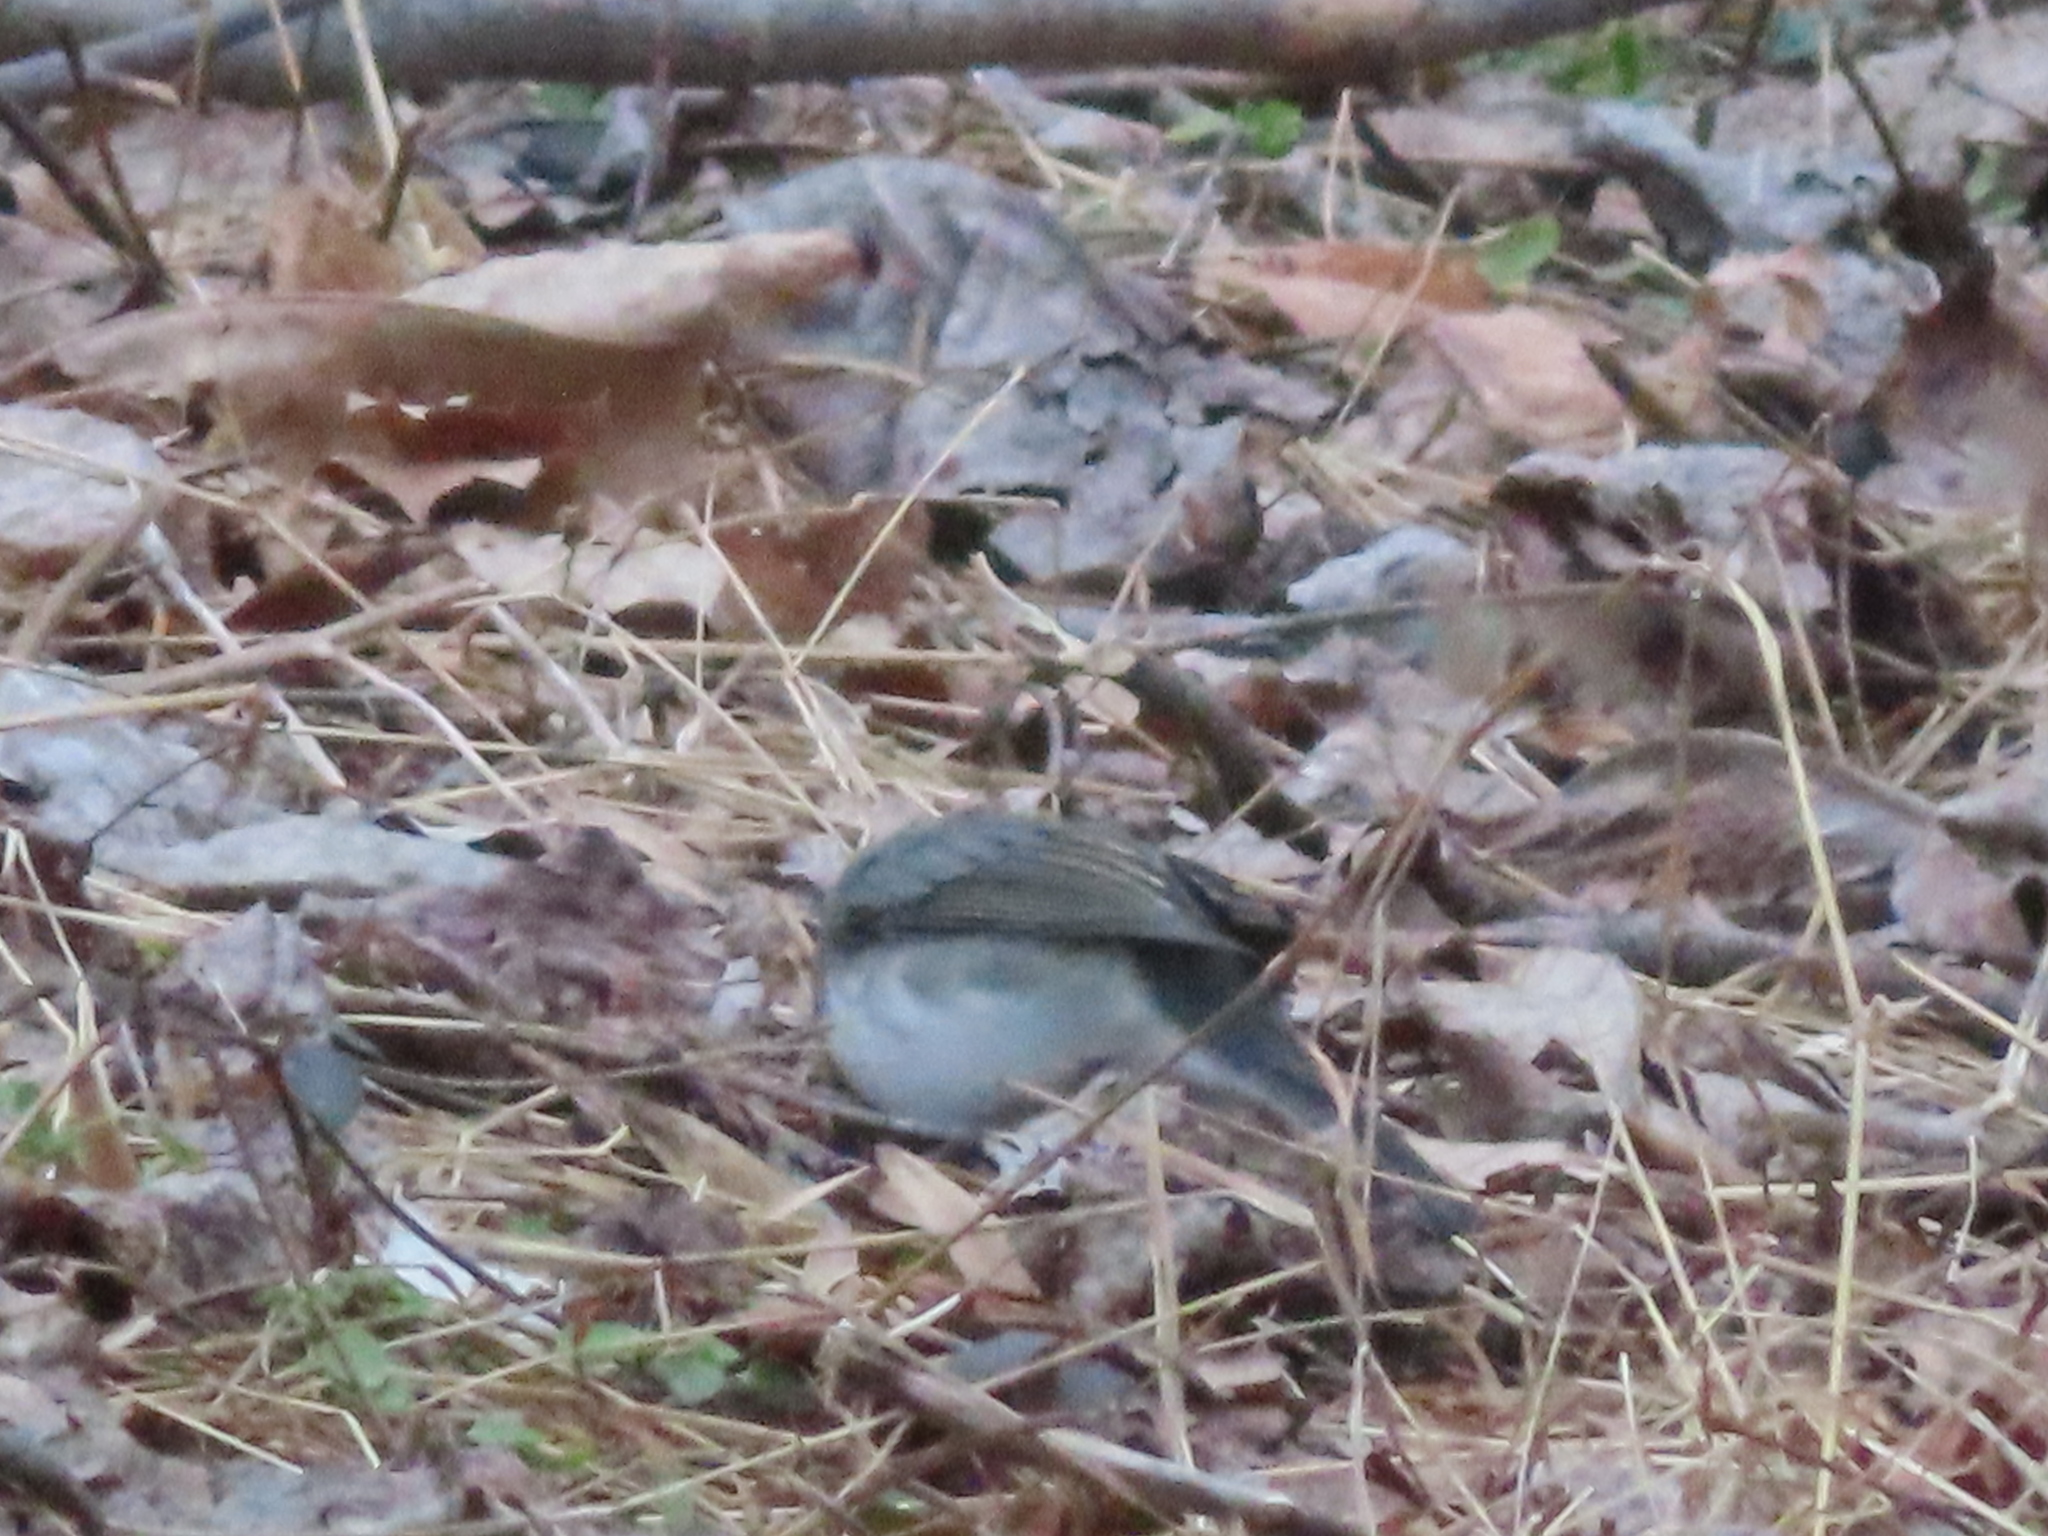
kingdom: Animalia
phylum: Chordata
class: Aves
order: Passeriformes
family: Passerellidae
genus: Junco
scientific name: Junco hyemalis
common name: Dark-eyed junco
